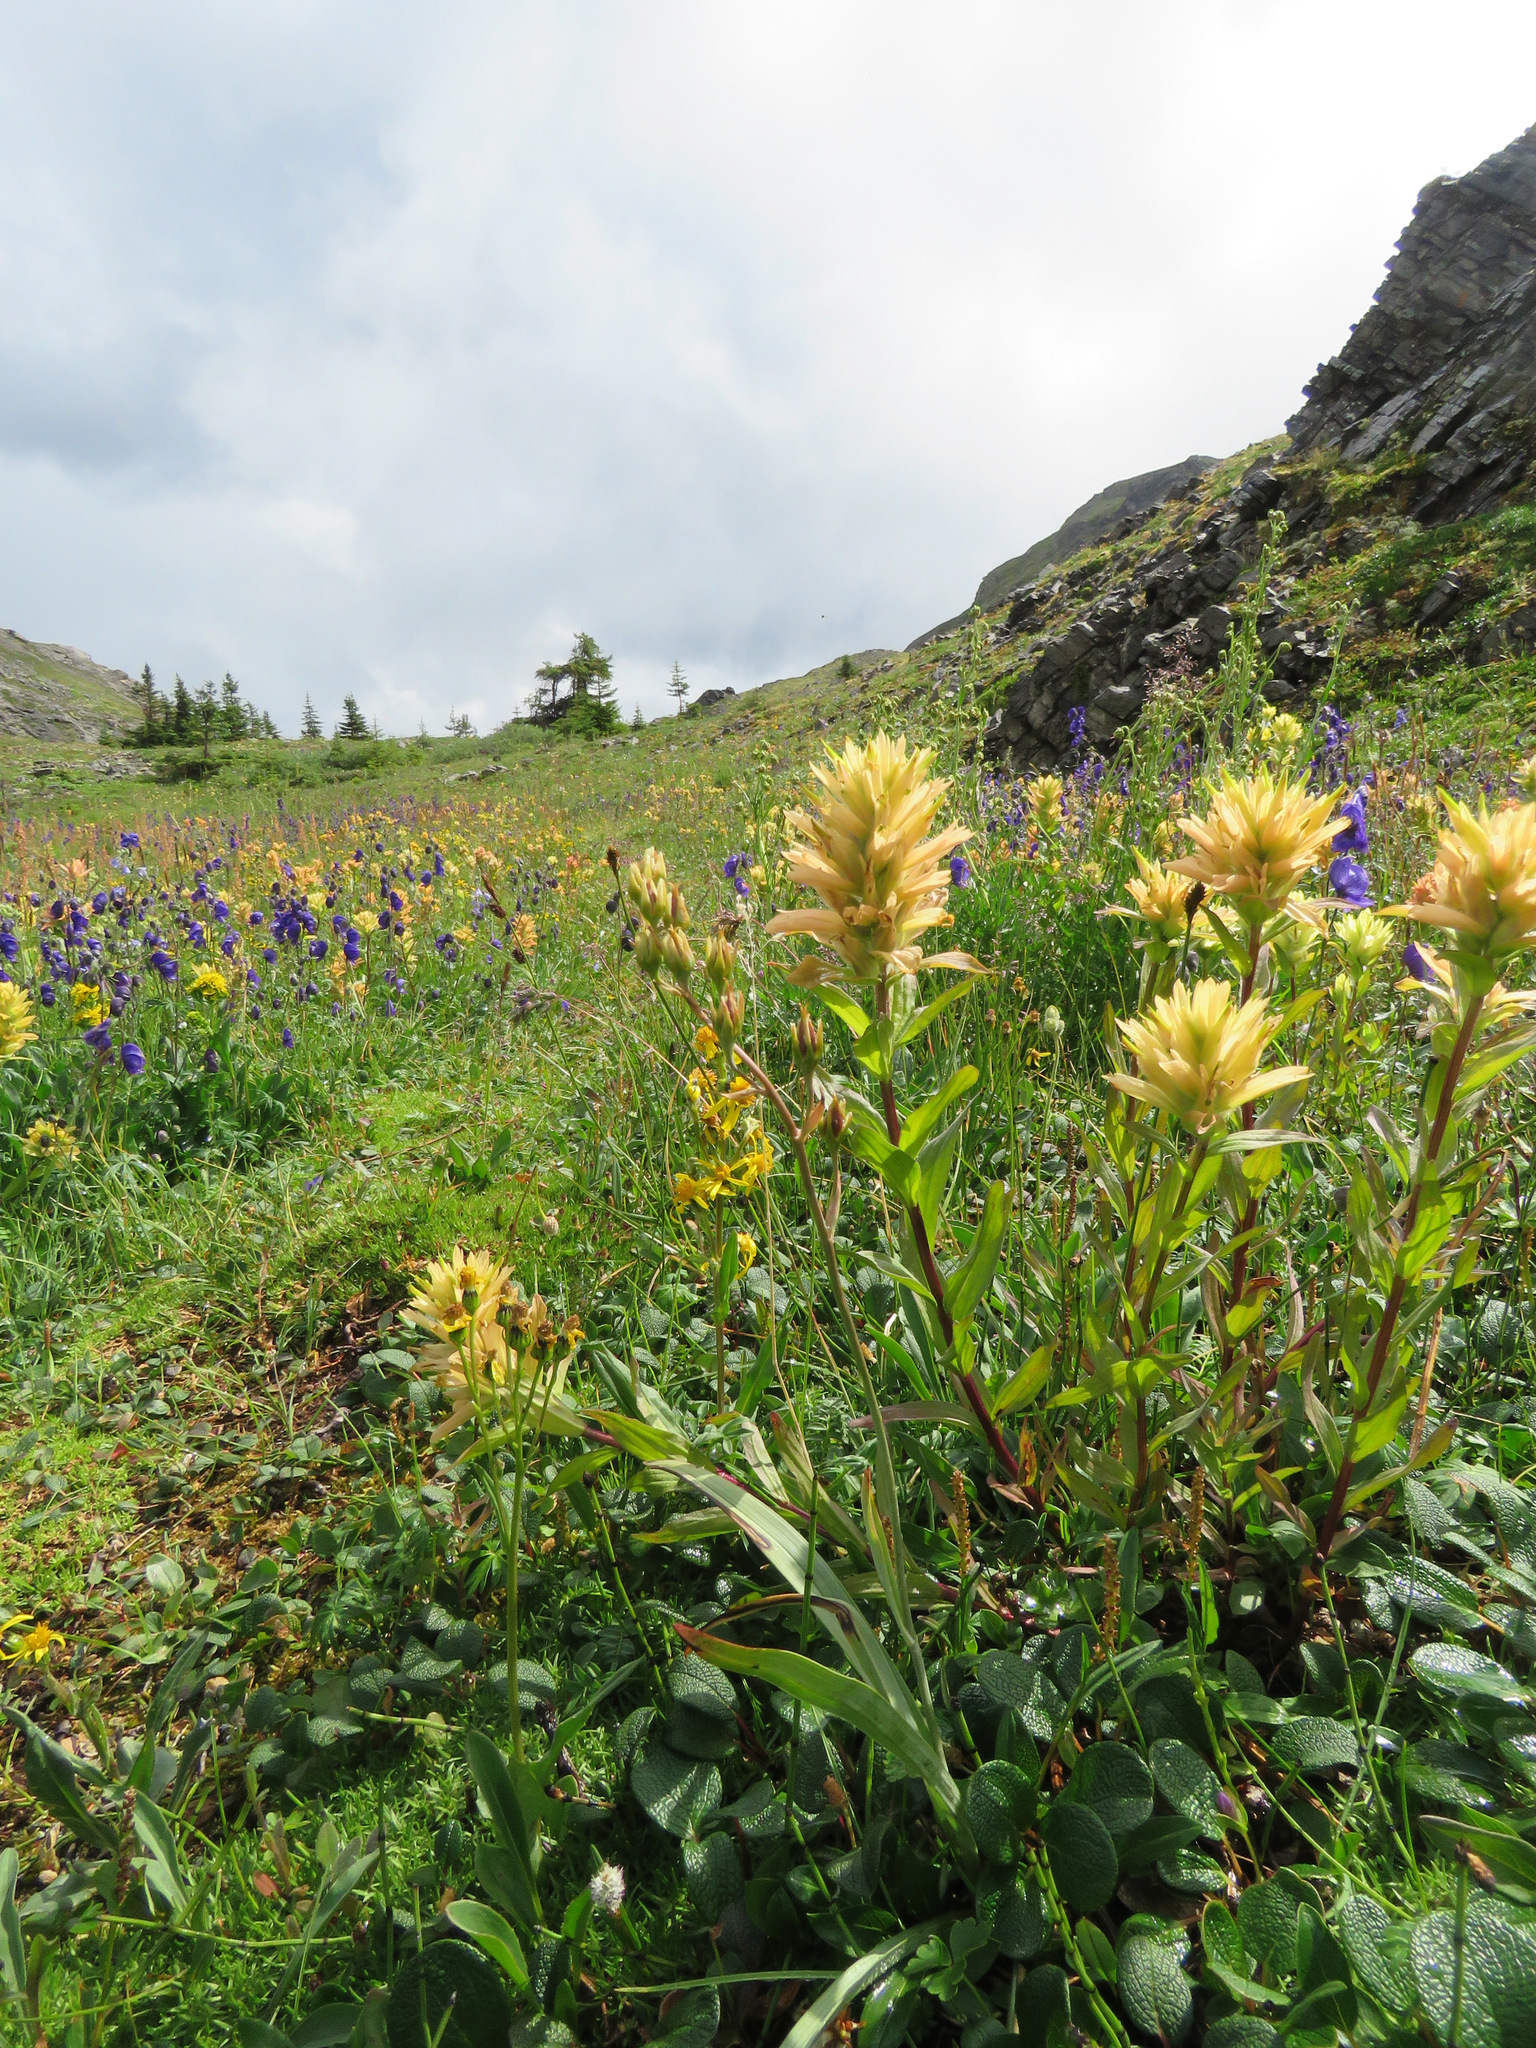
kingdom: Plantae
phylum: Tracheophyta
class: Magnoliopsida
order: Lamiales
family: Orobanchaceae
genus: Castilleja
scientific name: Castilleja miniata
